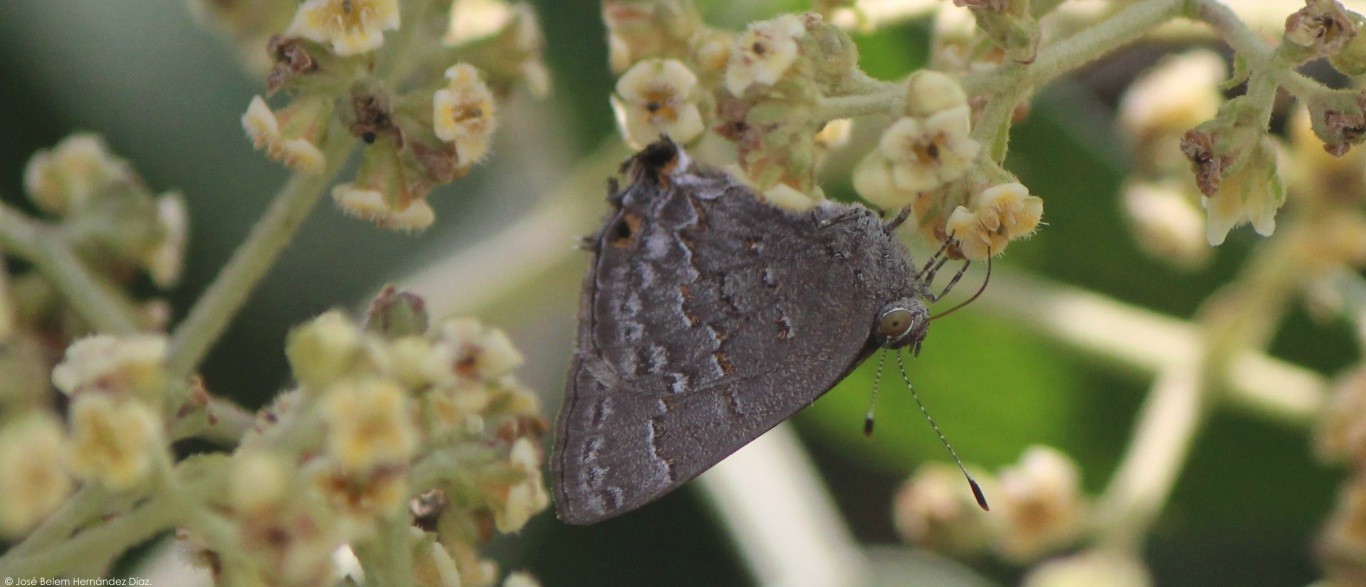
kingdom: Animalia
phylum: Arthropoda
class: Insecta
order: Lepidoptera
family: Lycaenidae
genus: Ministrymon
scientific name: Ministrymon leda
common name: Leda ministreak
